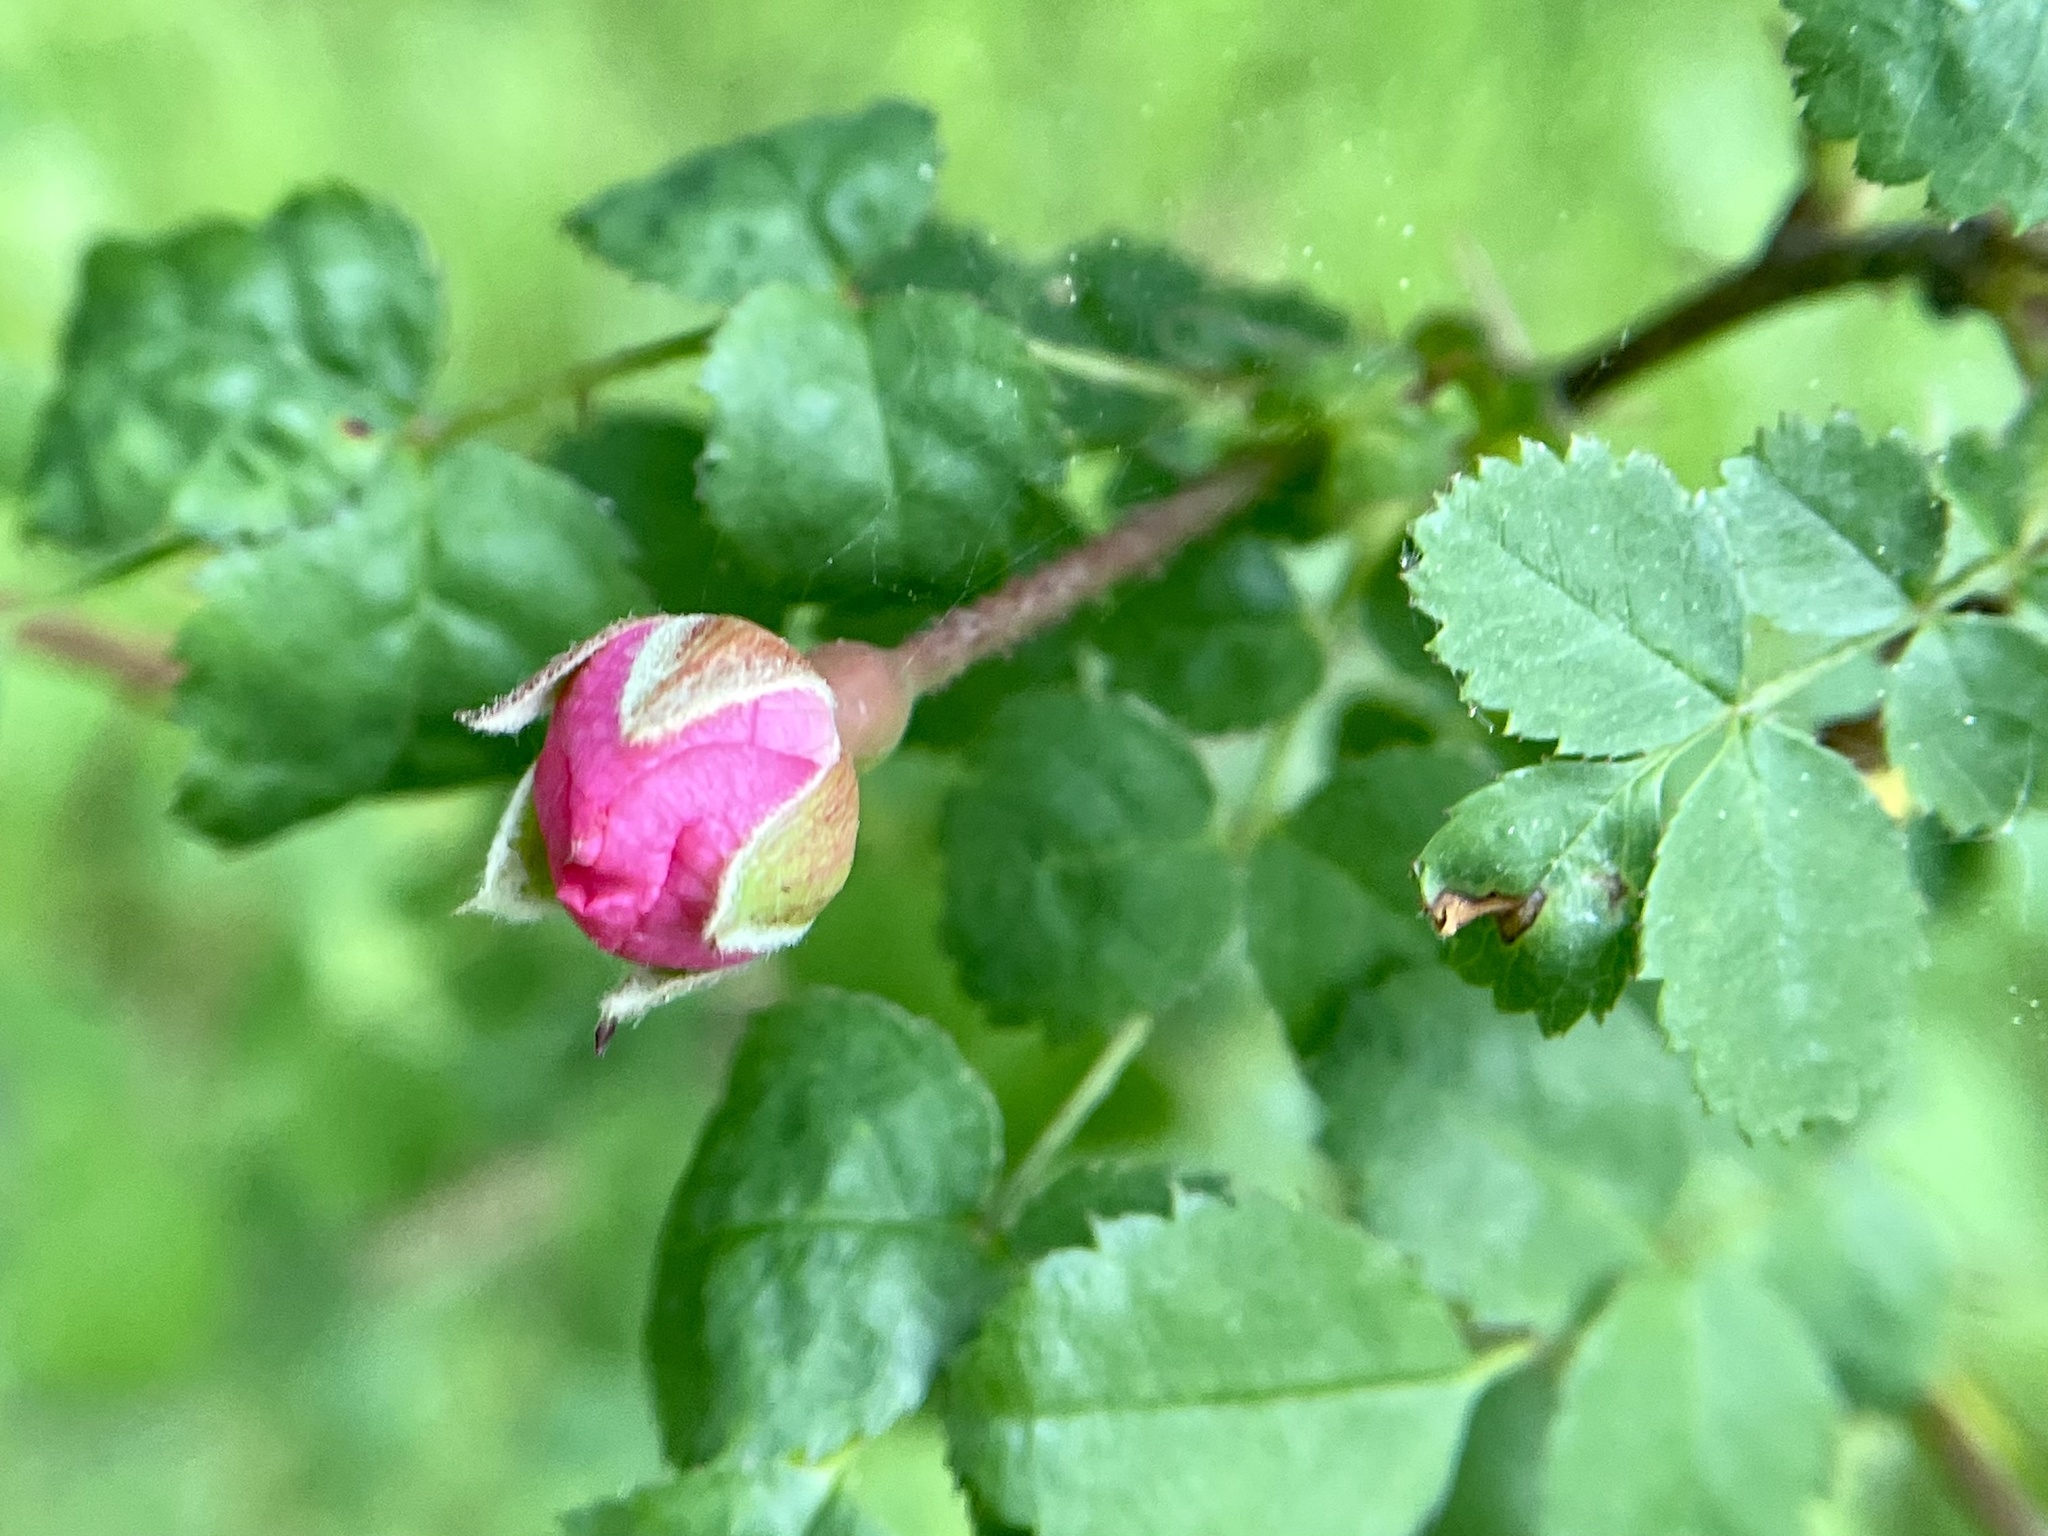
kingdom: Plantae
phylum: Tracheophyta
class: Magnoliopsida
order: Rosales
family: Rosaceae
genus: Rosa
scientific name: Rosa gymnocarpa
